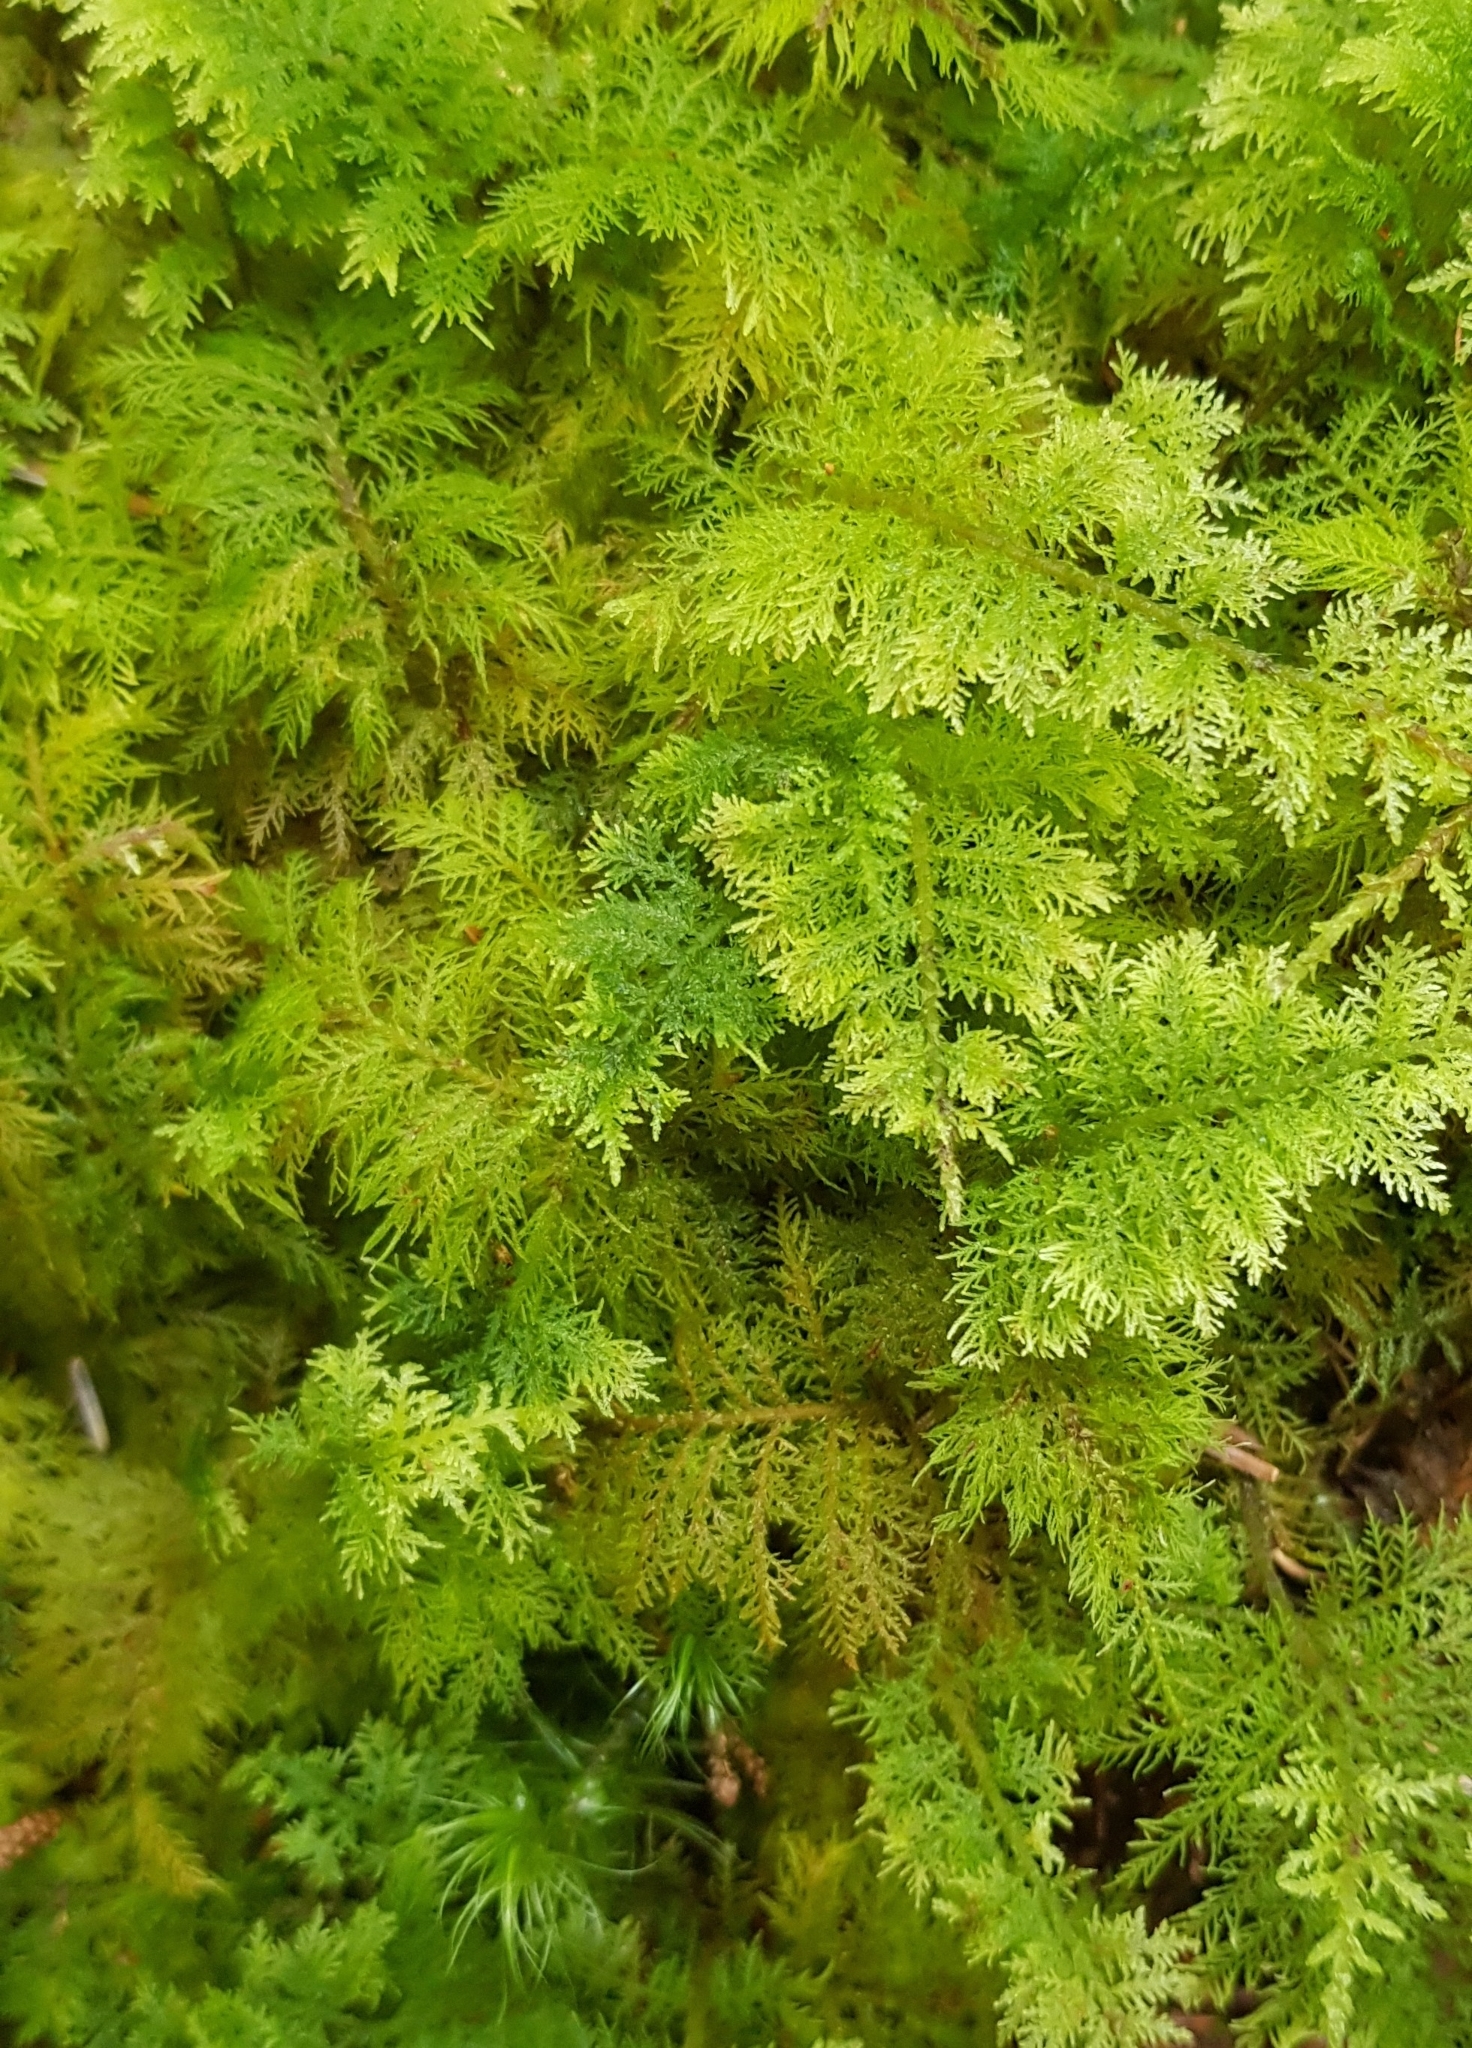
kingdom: Plantae
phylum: Bryophyta
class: Bryopsida
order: Hypnales
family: Thuidiaceae
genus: Thuidium
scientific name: Thuidium tamariscinum
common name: Common tamarisk-moss
